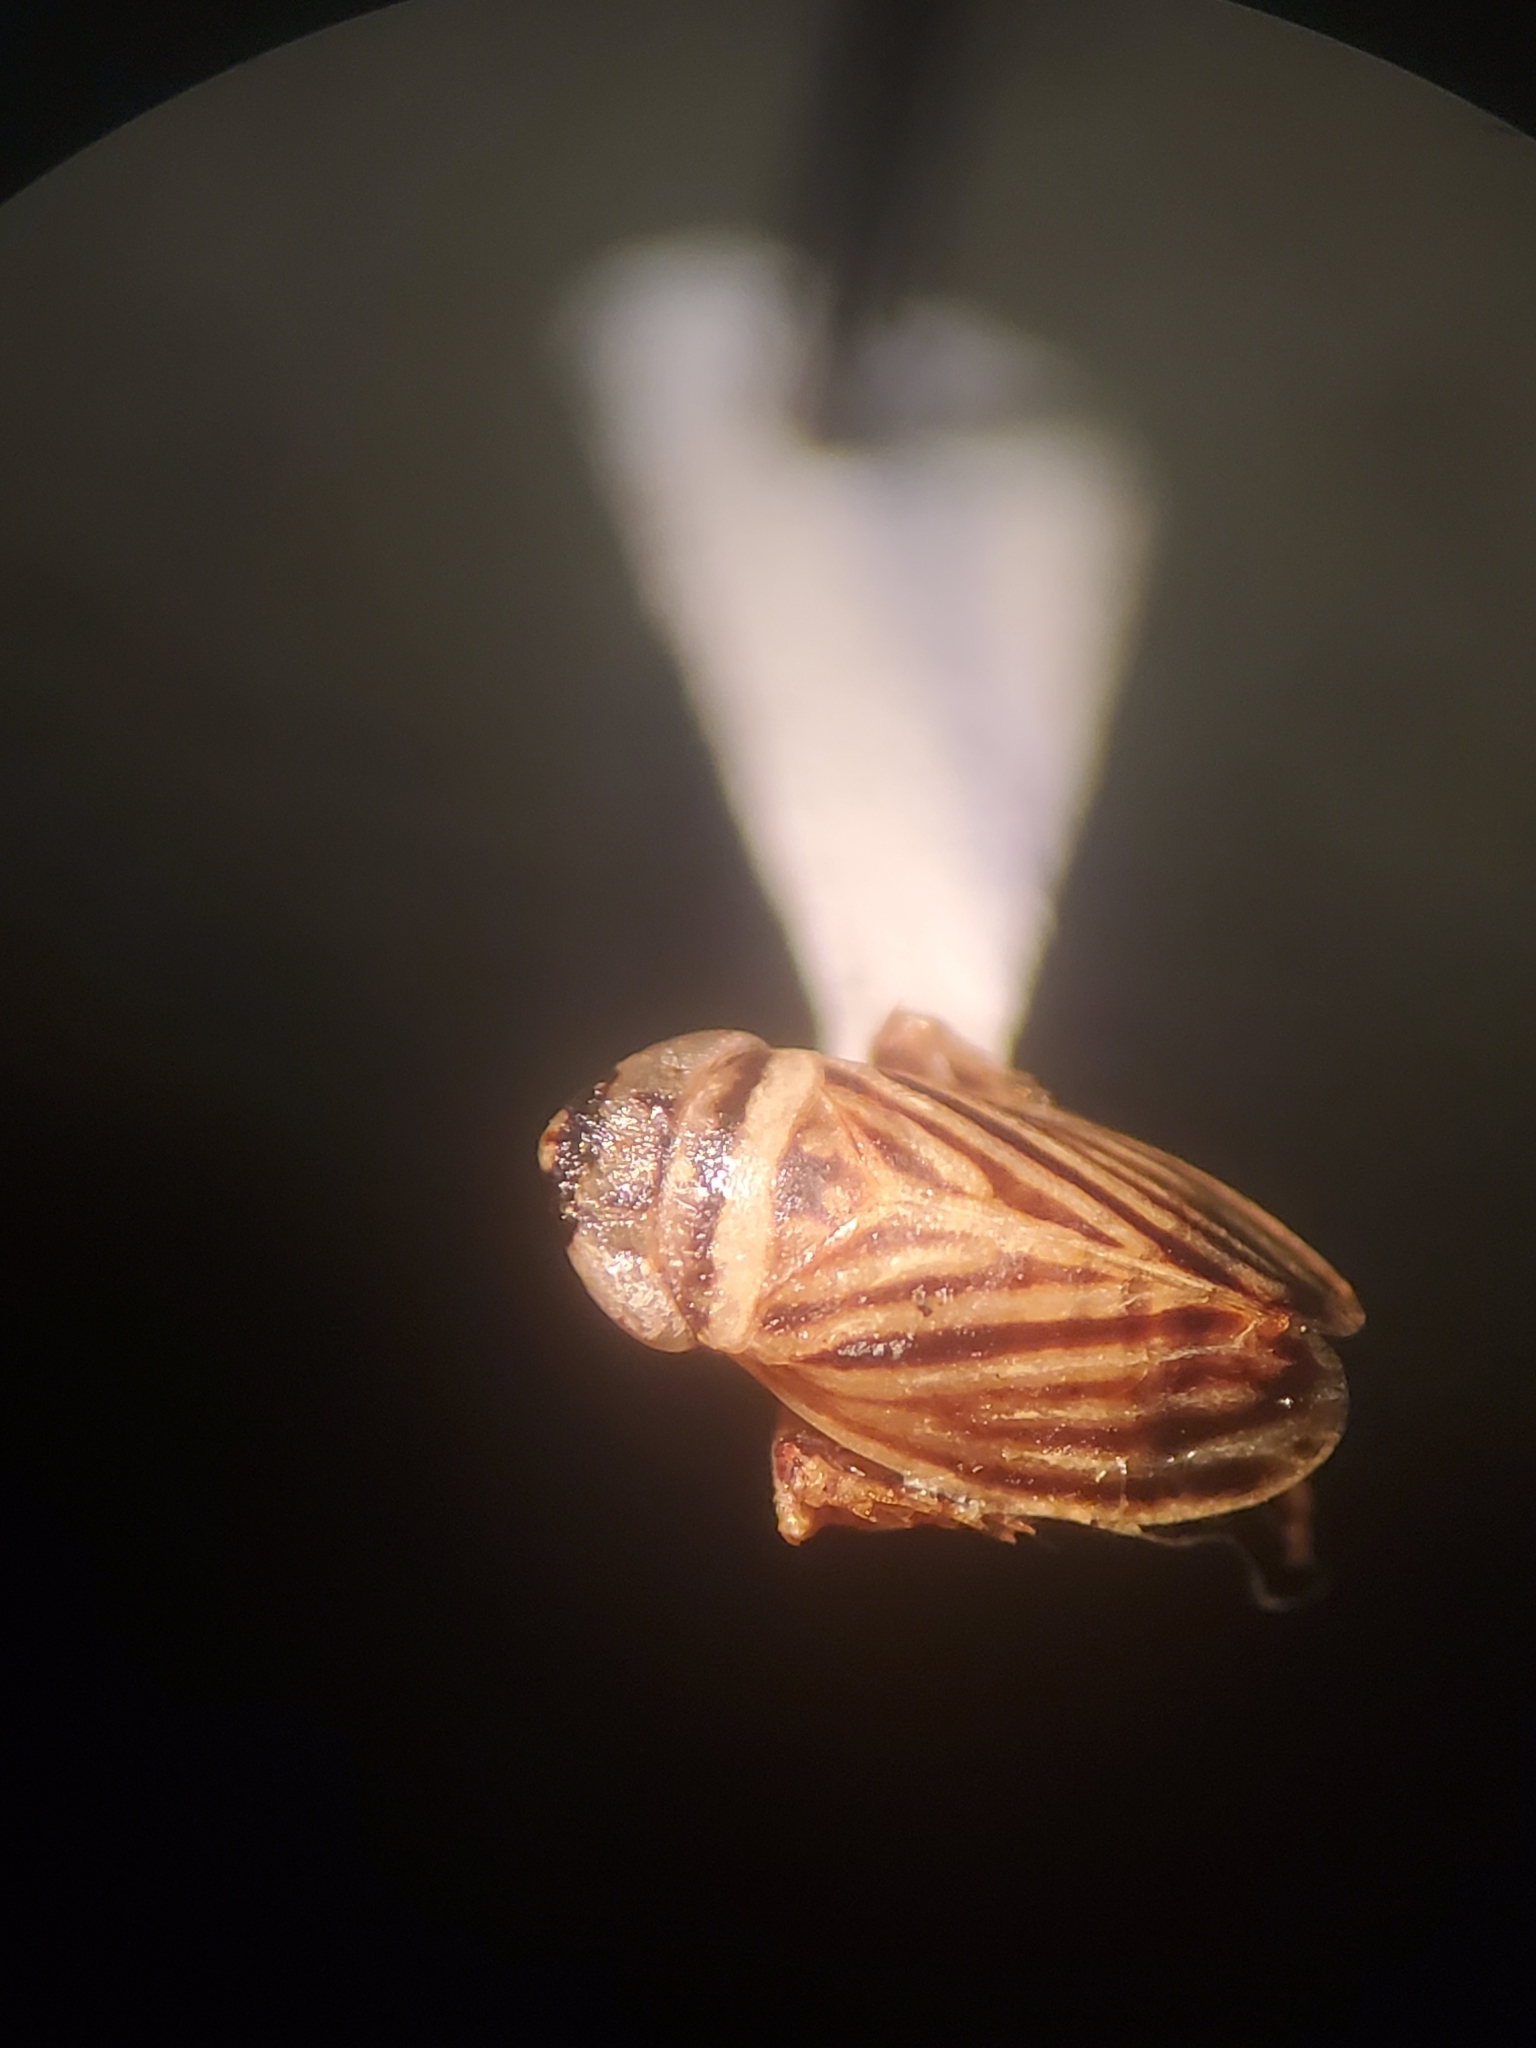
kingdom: Animalia
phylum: Arthropoda
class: Insecta
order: Hemiptera
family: Cicadellidae
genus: Anoscopus
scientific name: Anoscopus flavostriatus
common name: Leafhopper
